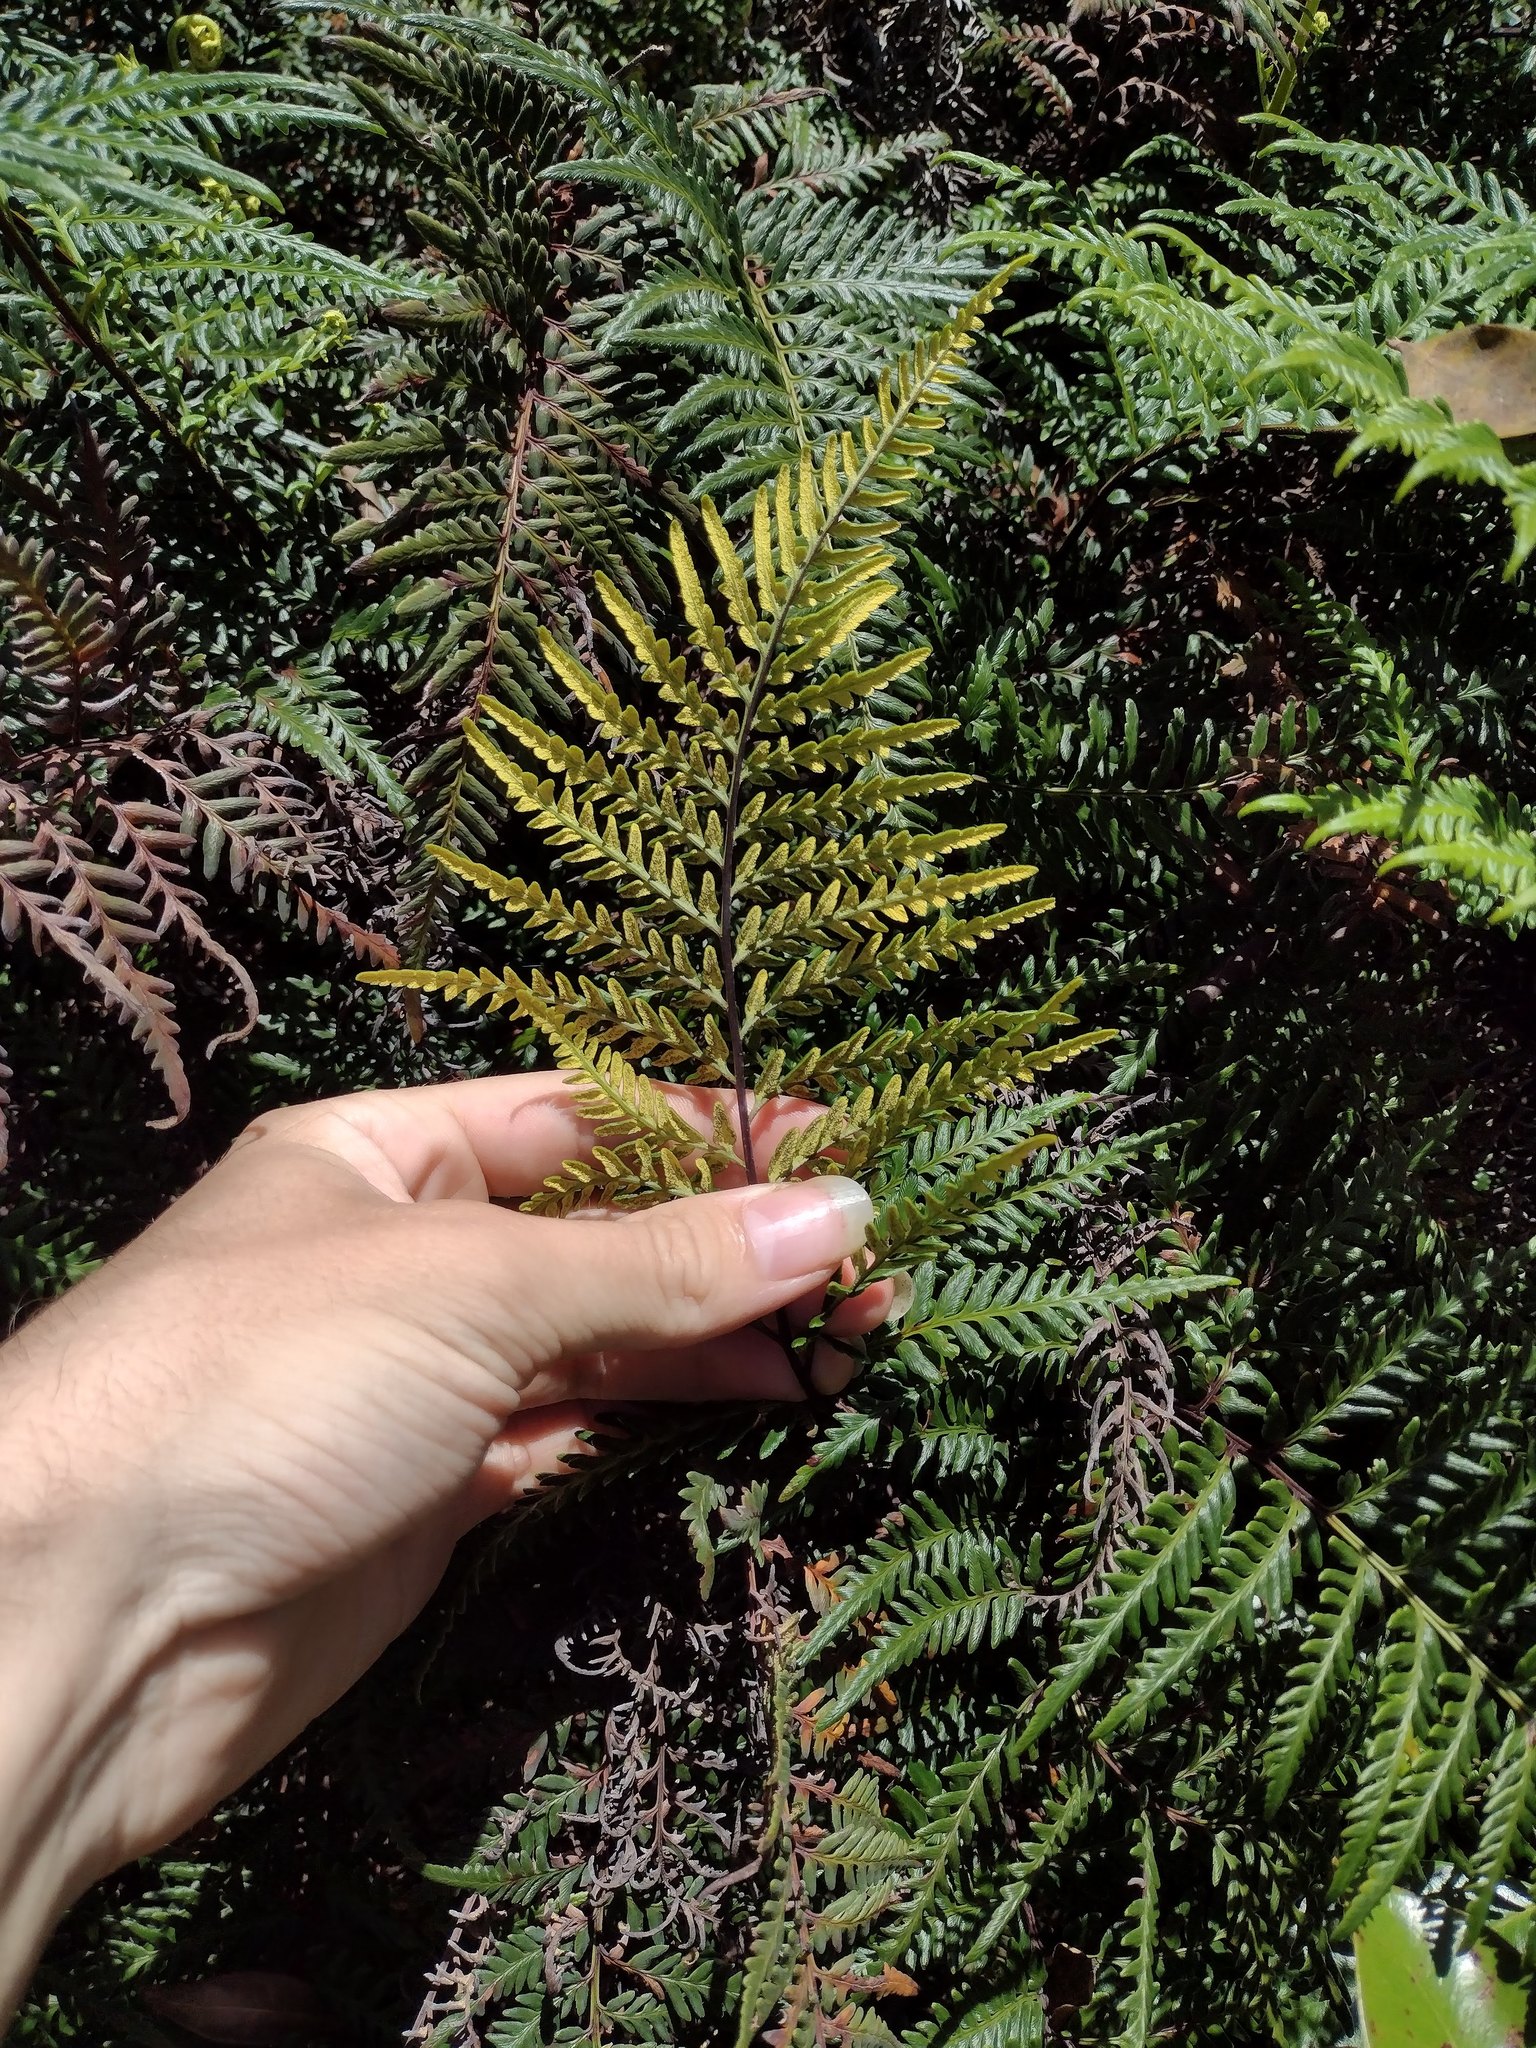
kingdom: Plantae
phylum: Tracheophyta
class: Polypodiopsida
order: Polypodiales
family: Pteridaceae
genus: Pityrogramma
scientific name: Pityrogramma austroamericana
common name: Leatherleaf goldback fern
